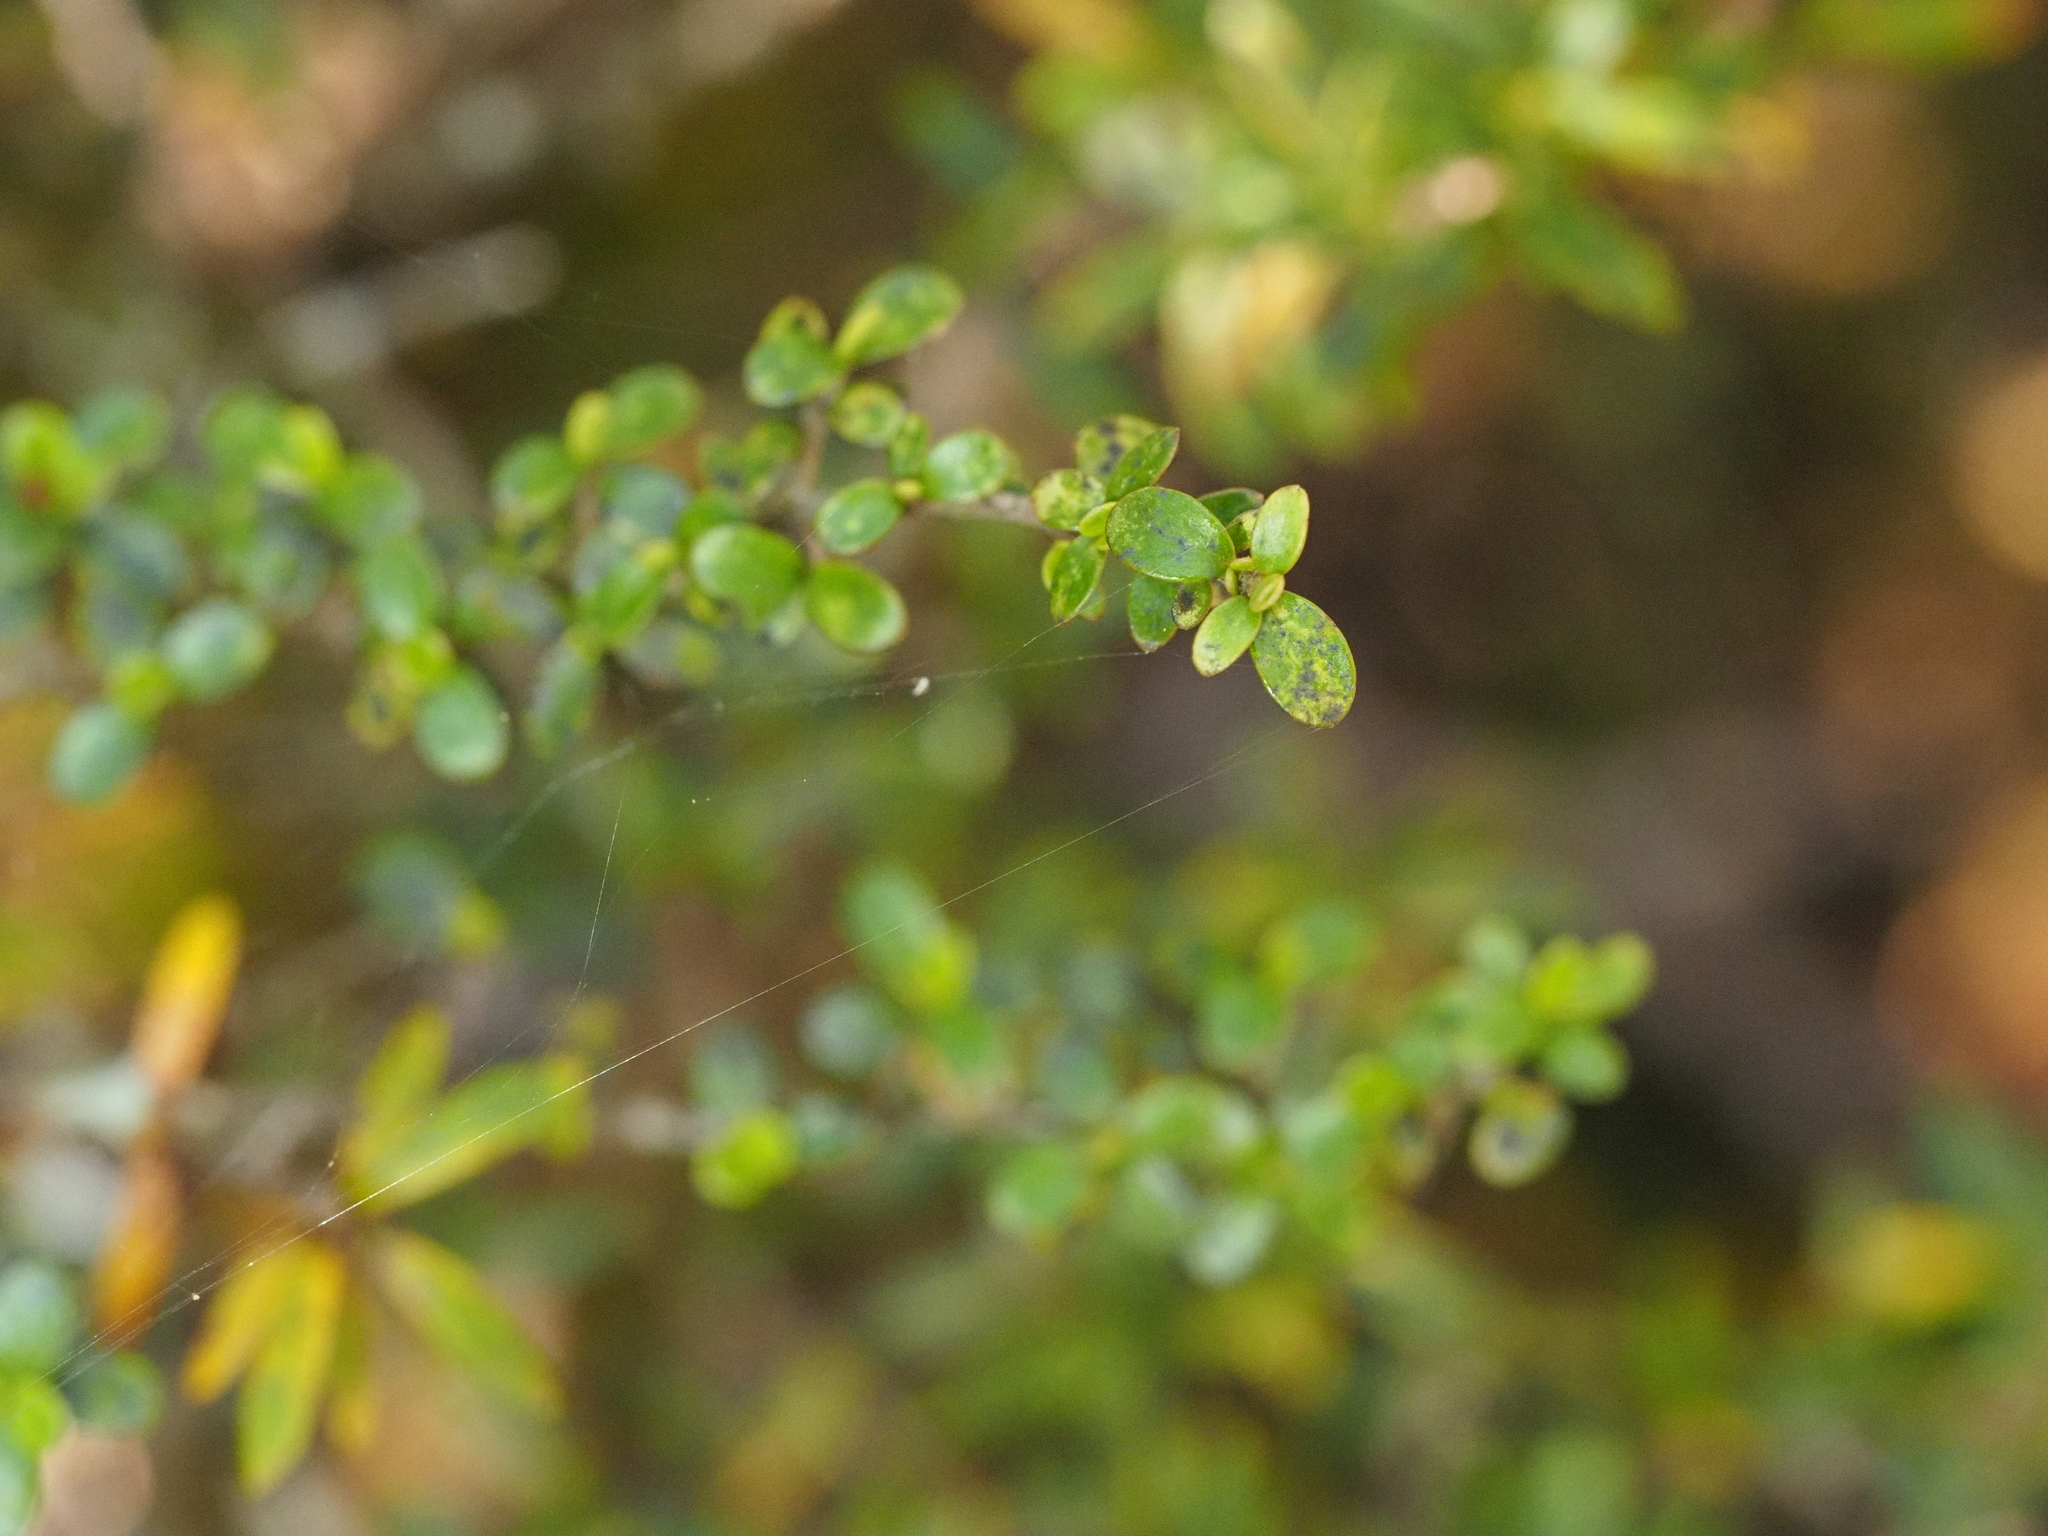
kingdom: Plantae
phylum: Tracheophyta
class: Magnoliopsida
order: Gentianales
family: Rubiaceae
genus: Coprosma
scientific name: Coprosma dumosa
